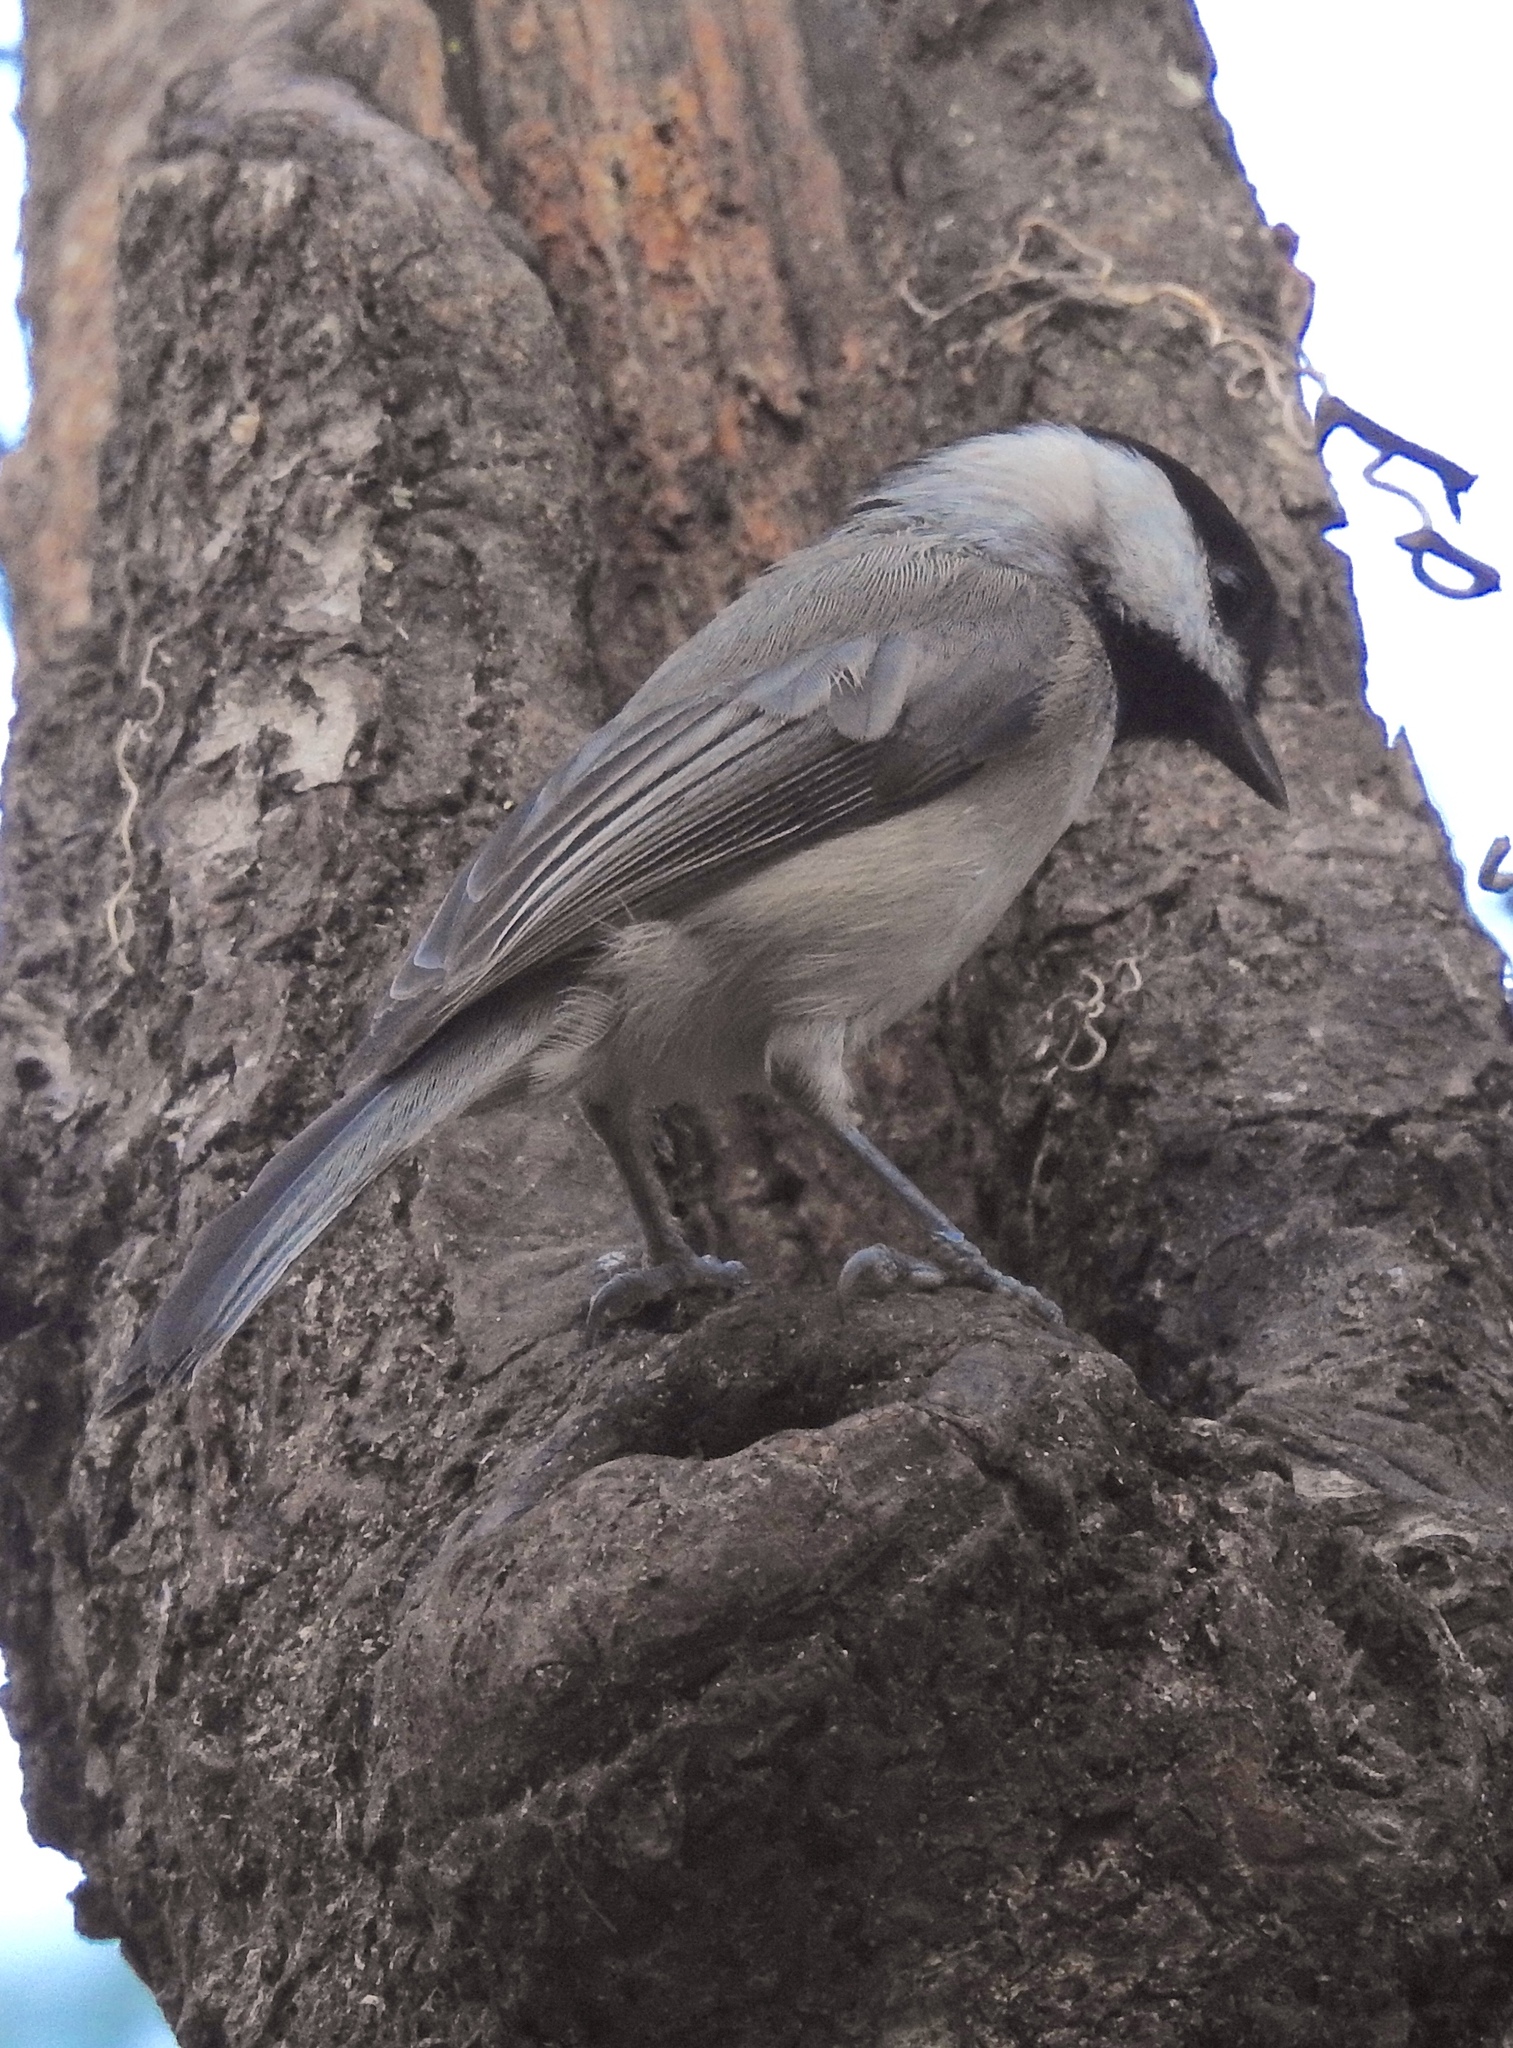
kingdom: Animalia
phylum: Chordata
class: Aves
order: Passeriformes
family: Paridae
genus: Poecile
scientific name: Poecile carolinensis
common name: Carolina chickadee
